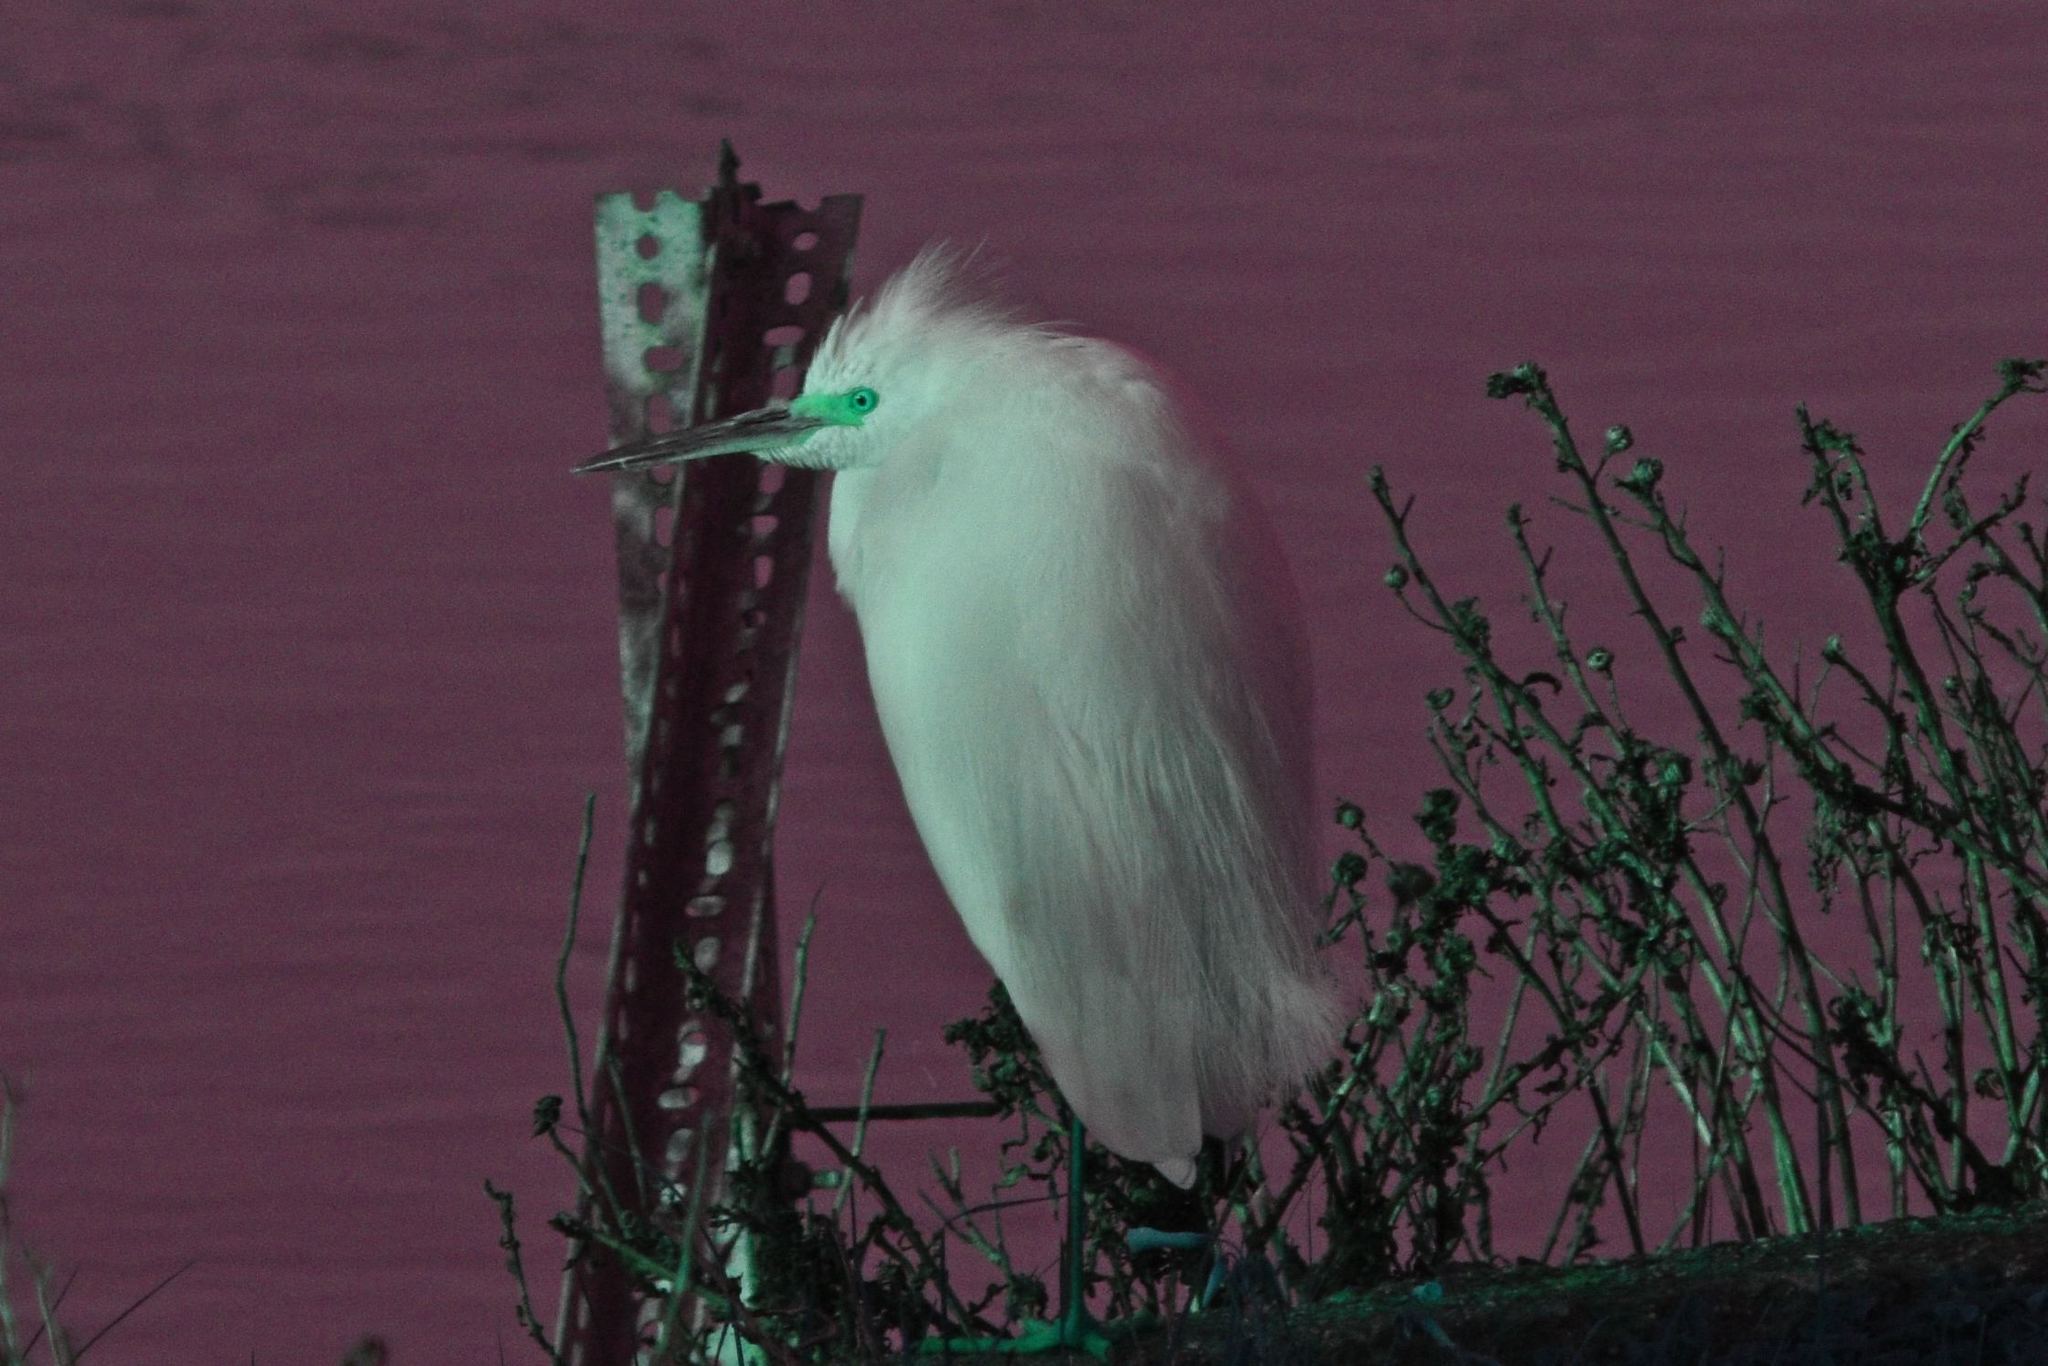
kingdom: Animalia
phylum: Chordata
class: Aves
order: Pelecaniformes
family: Ardeidae
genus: Egretta
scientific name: Egretta thula
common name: Snowy egret
